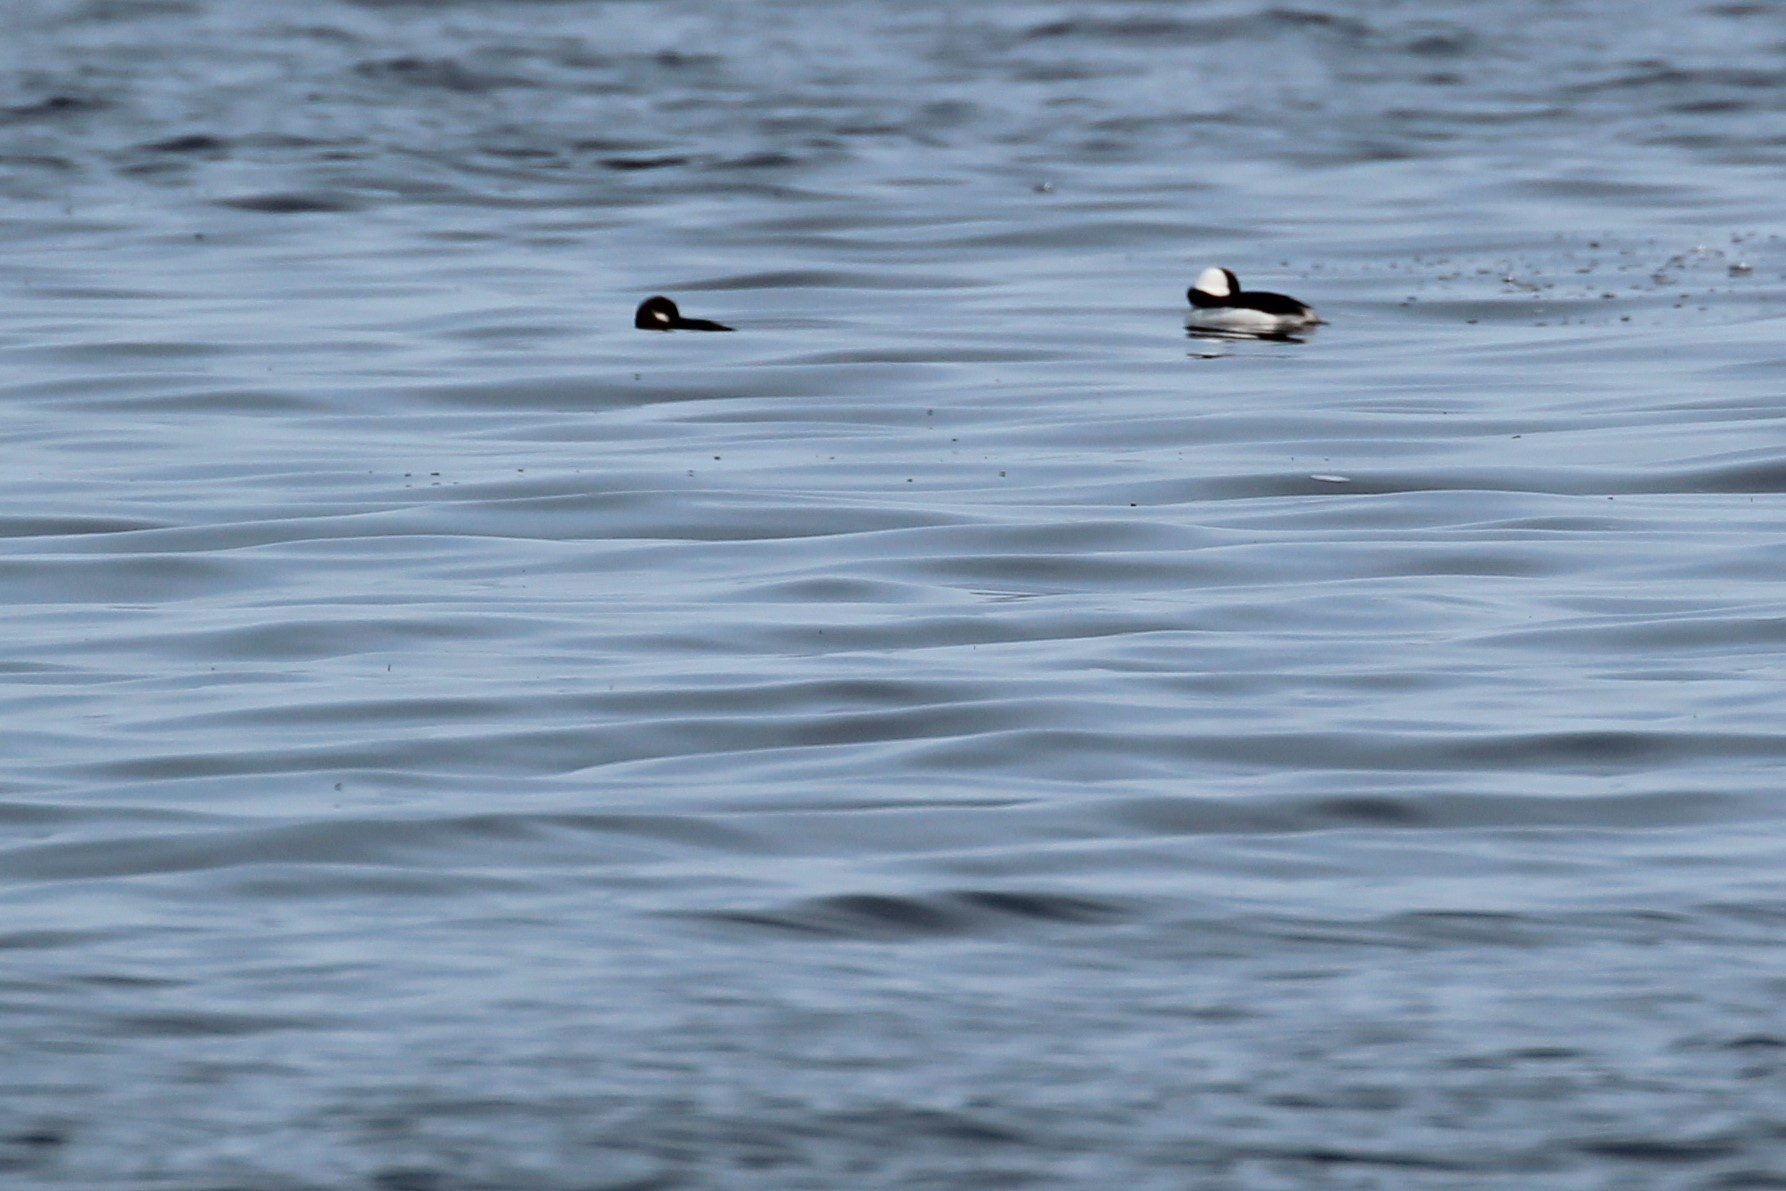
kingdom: Animalia
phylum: Chordata
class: Aves
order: Anseriformes
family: Anatidae
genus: Bucephala
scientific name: Bucephala albeola
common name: Bufflehead
